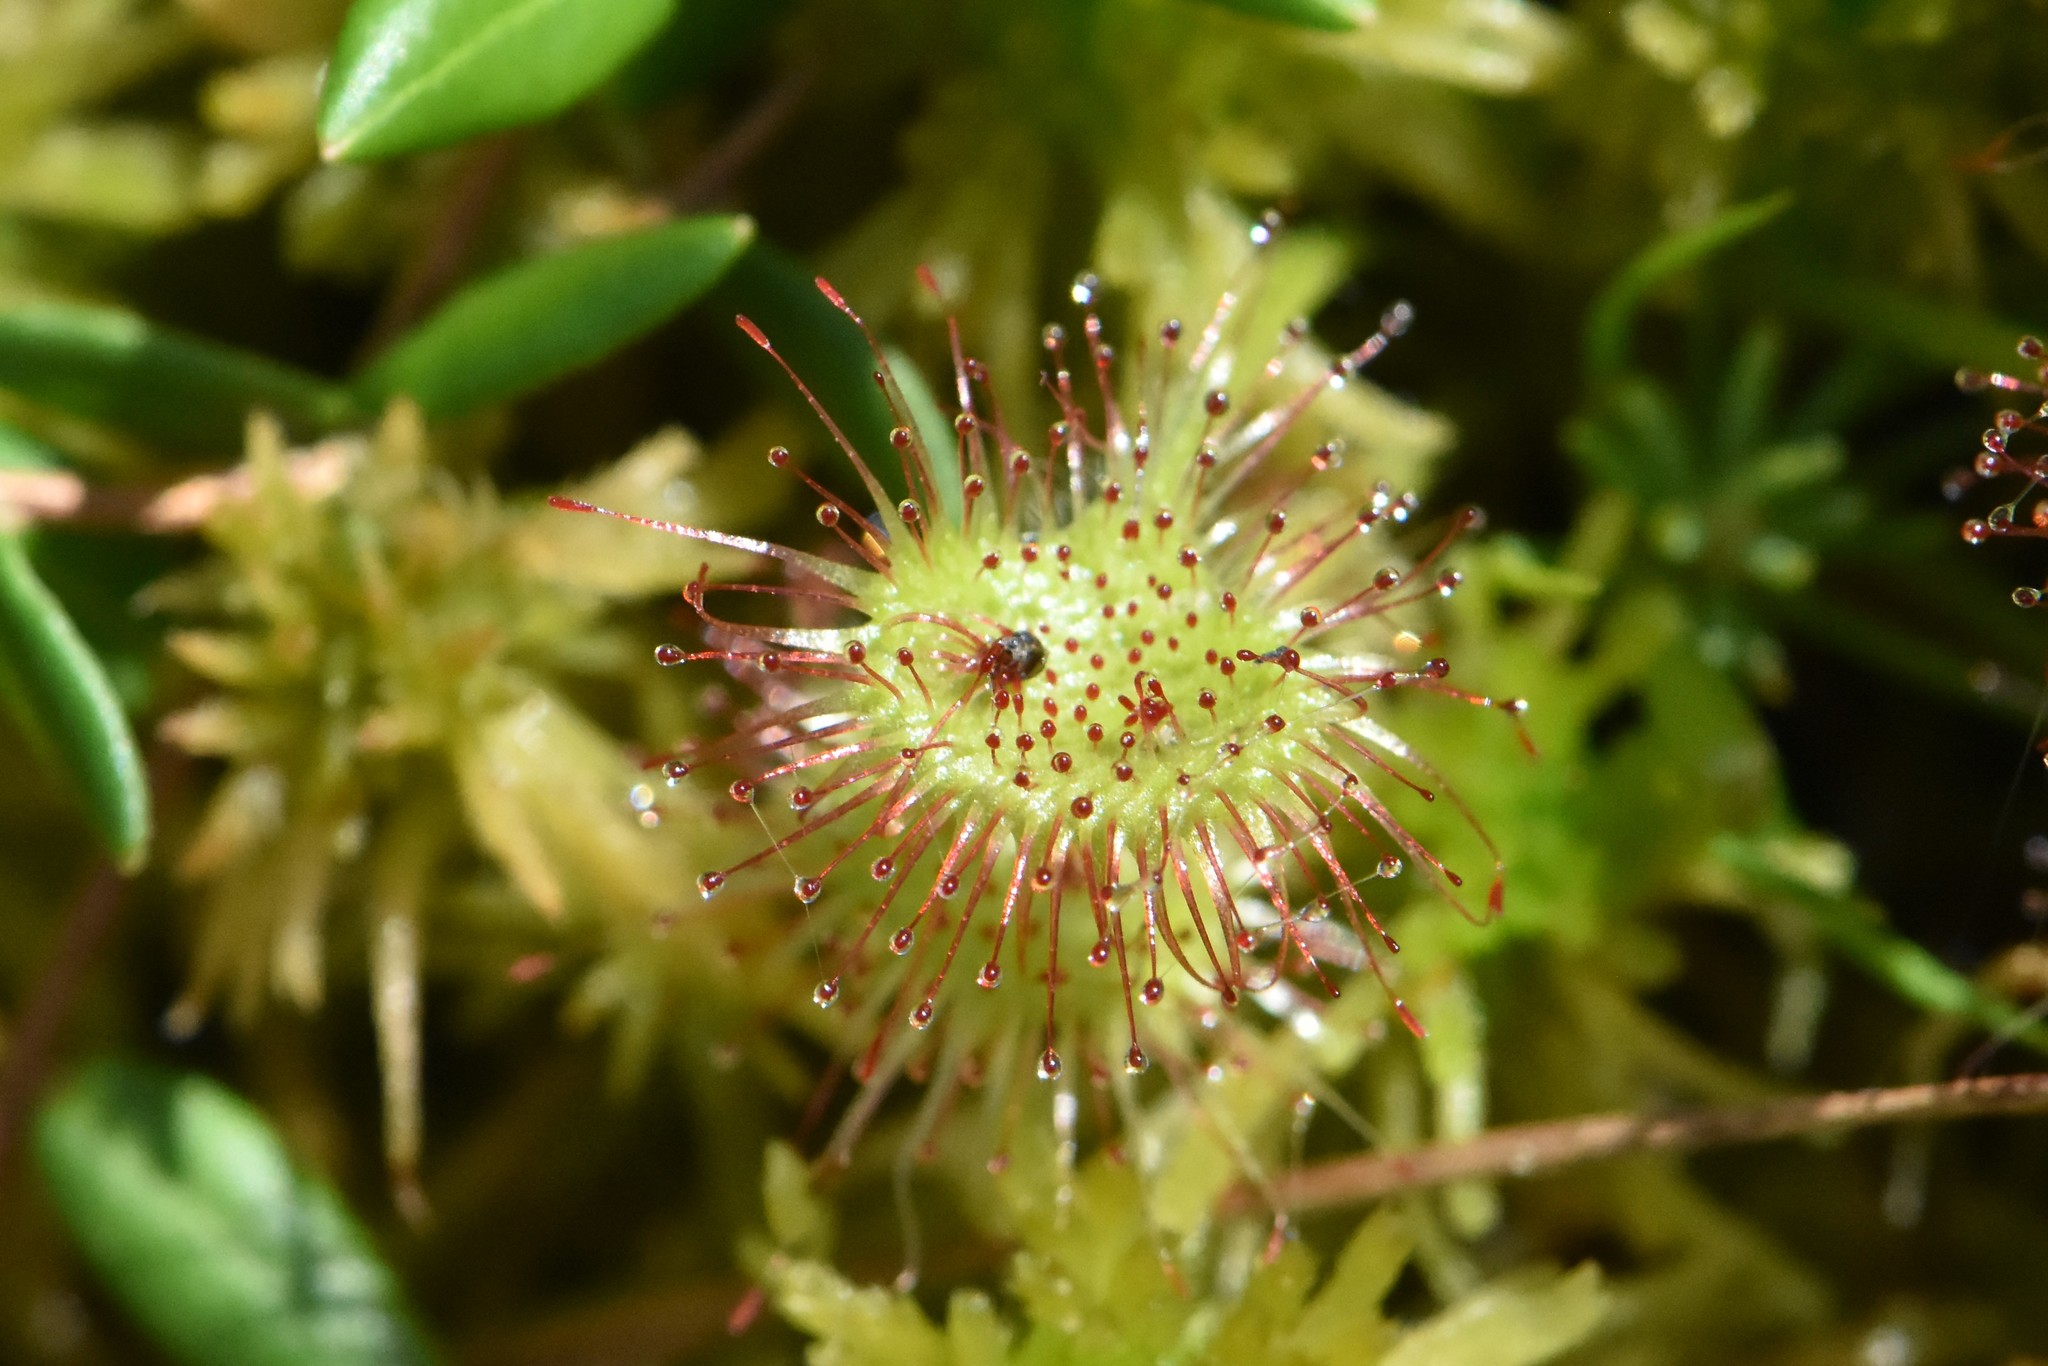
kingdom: Plantae
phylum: Tracheophyta
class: Magnoliopsida
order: Caryophyllales
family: Droseraceae
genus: Drosera
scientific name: Drosera rotundifolia
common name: Round-leaved sundew
